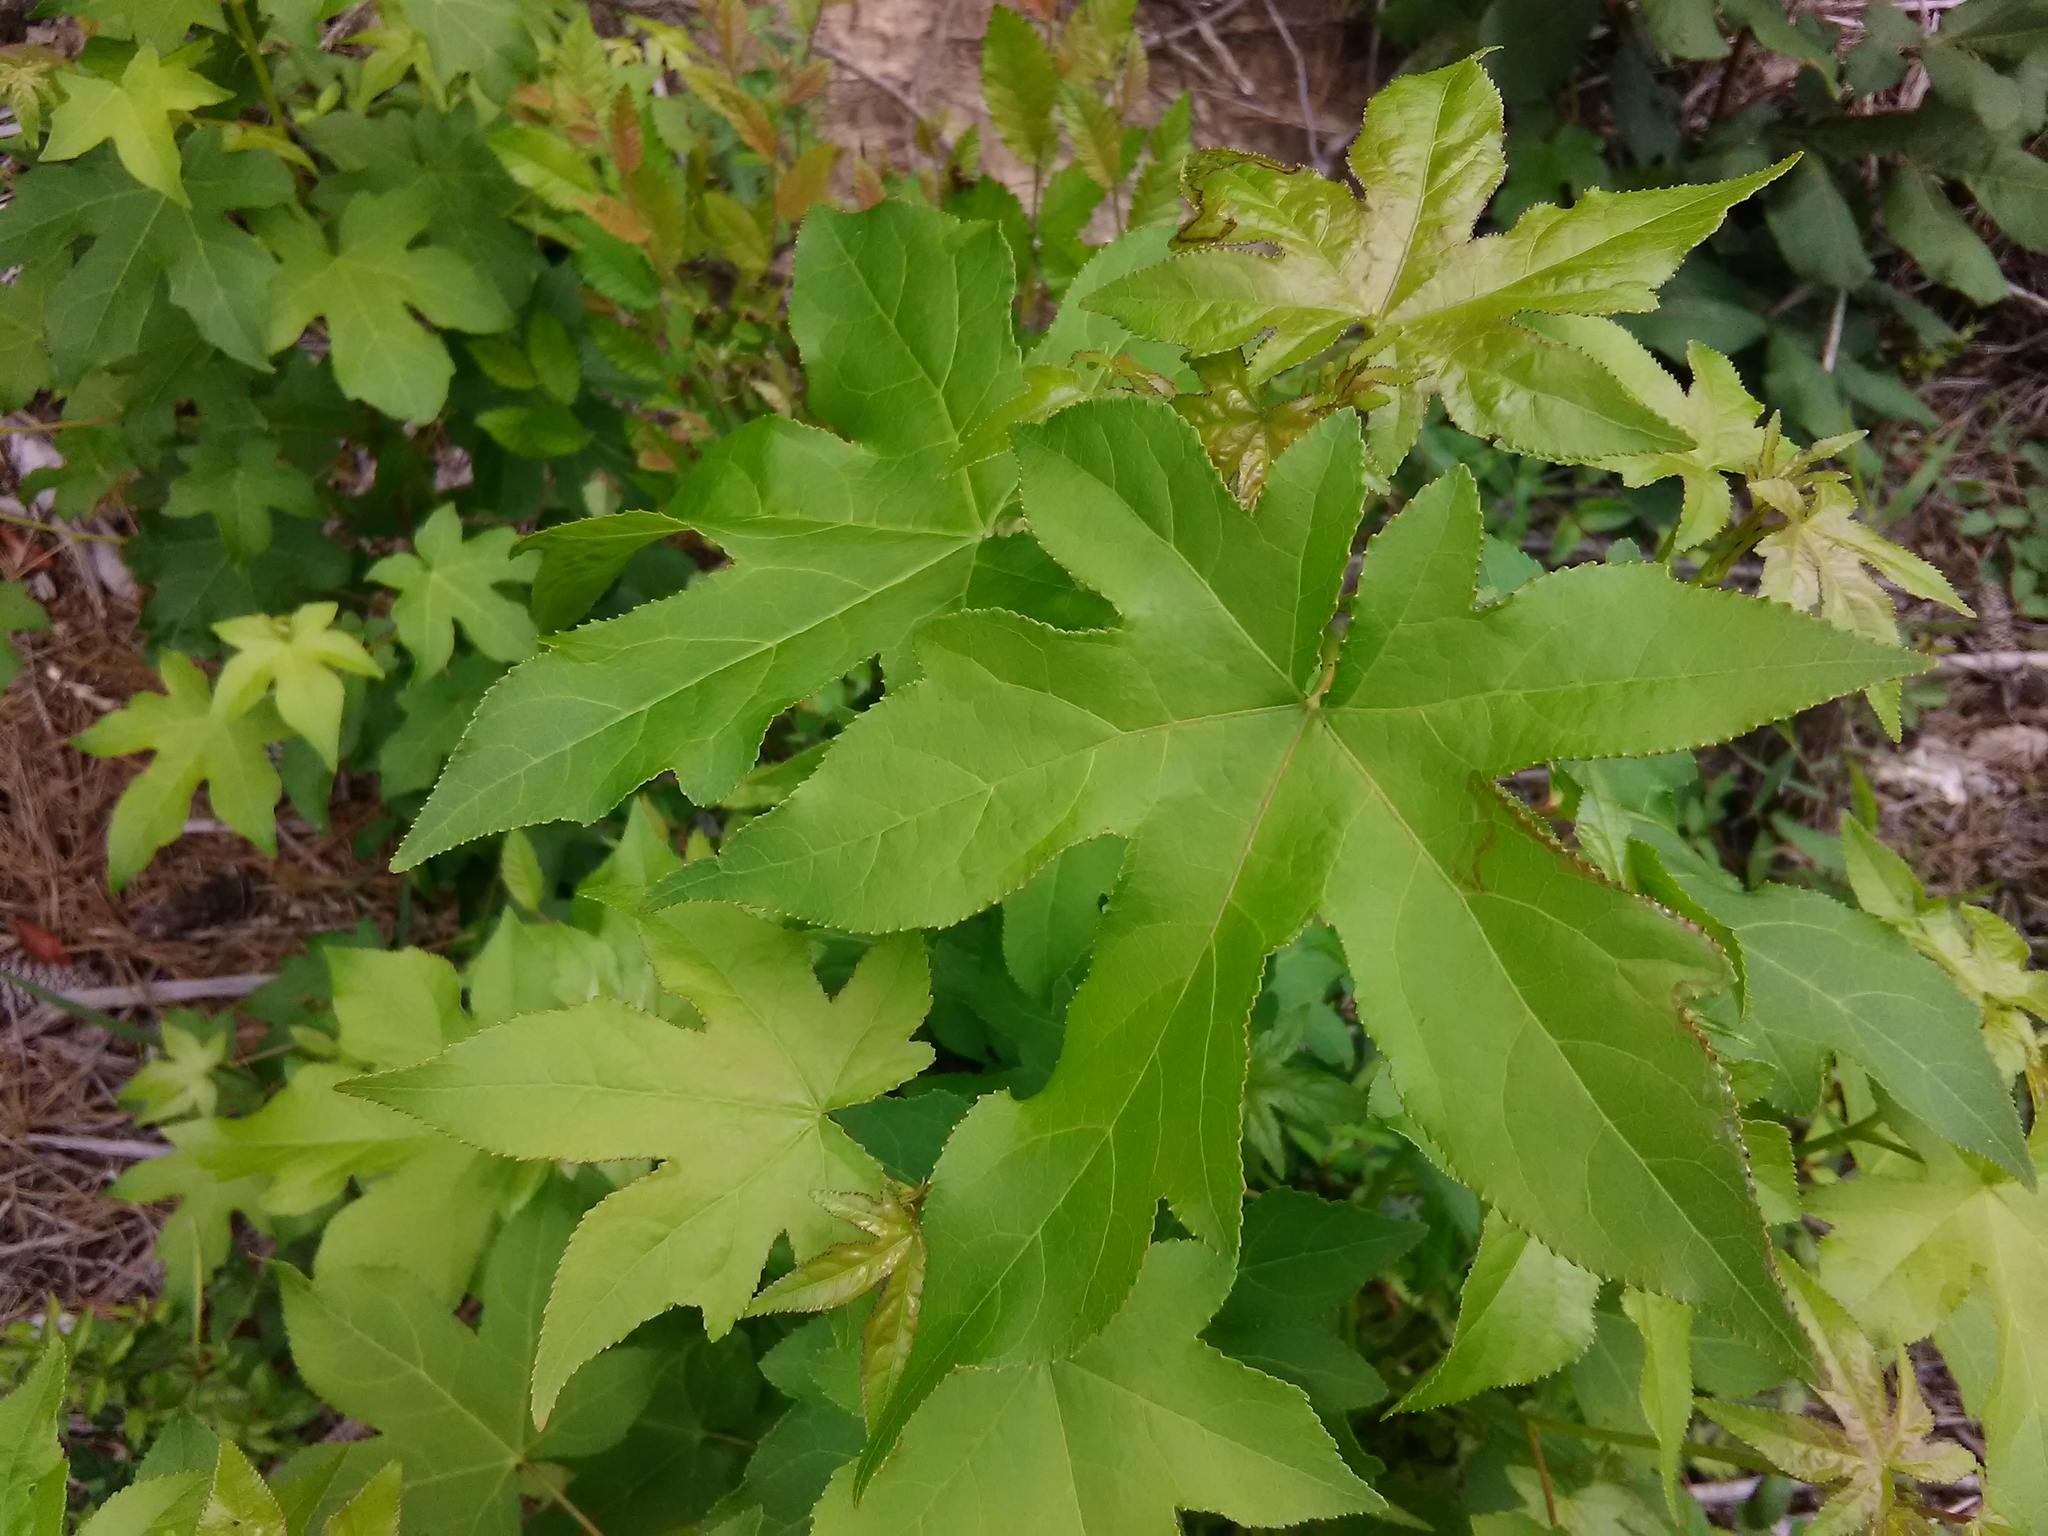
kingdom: Plantae
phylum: Tracheophyta
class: Magnoliopsida
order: Saxifragales
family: Altingiaceae
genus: Liquidambar
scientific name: Liquidambar styraciflua
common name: Sweet gum
